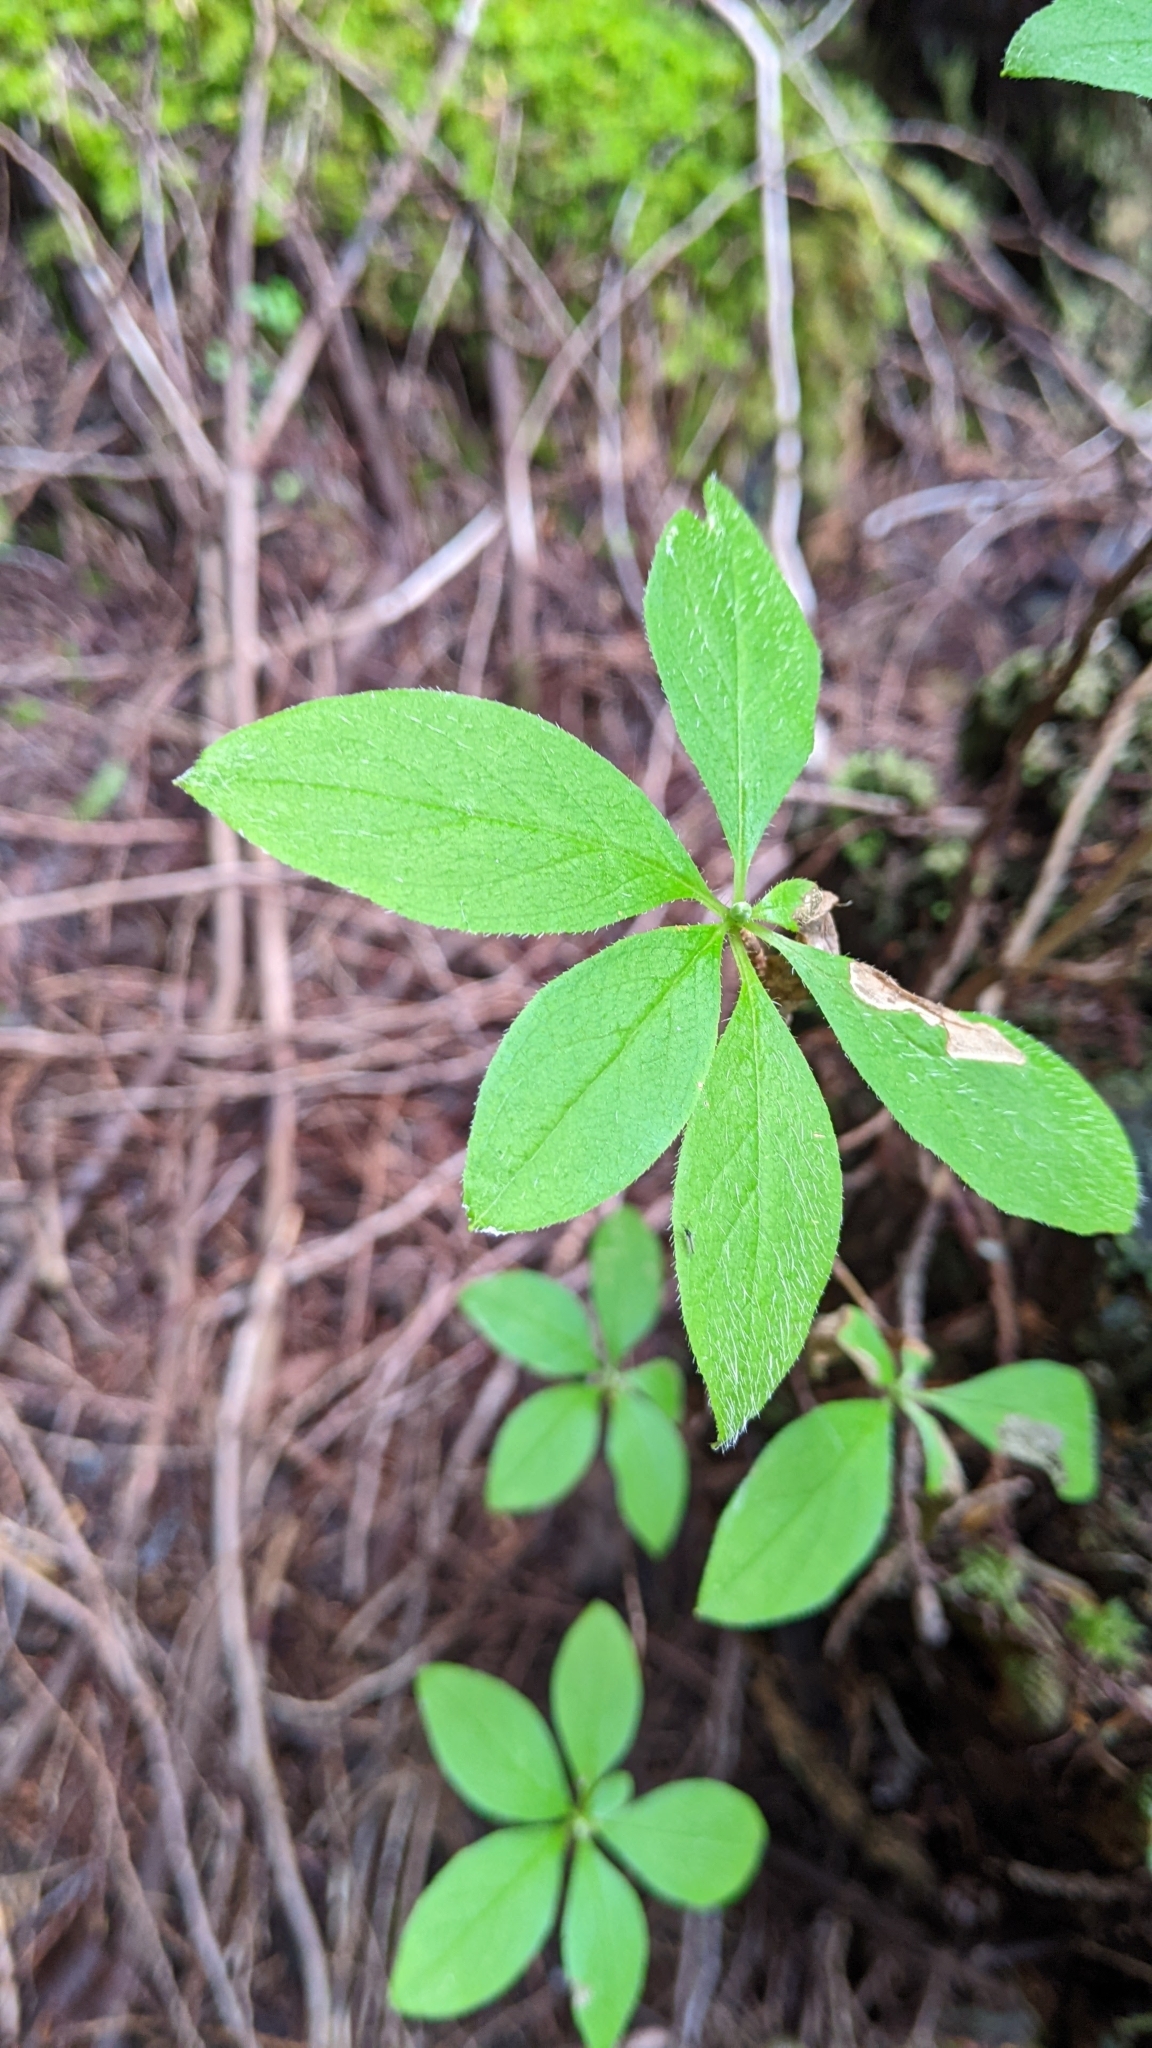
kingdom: Plantae
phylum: Tracheophyta
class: Magnoliopsida
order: Ericales
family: Ericaceae
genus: Rhododendron
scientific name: Rhododendron menziesii
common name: Pacific menziesia
